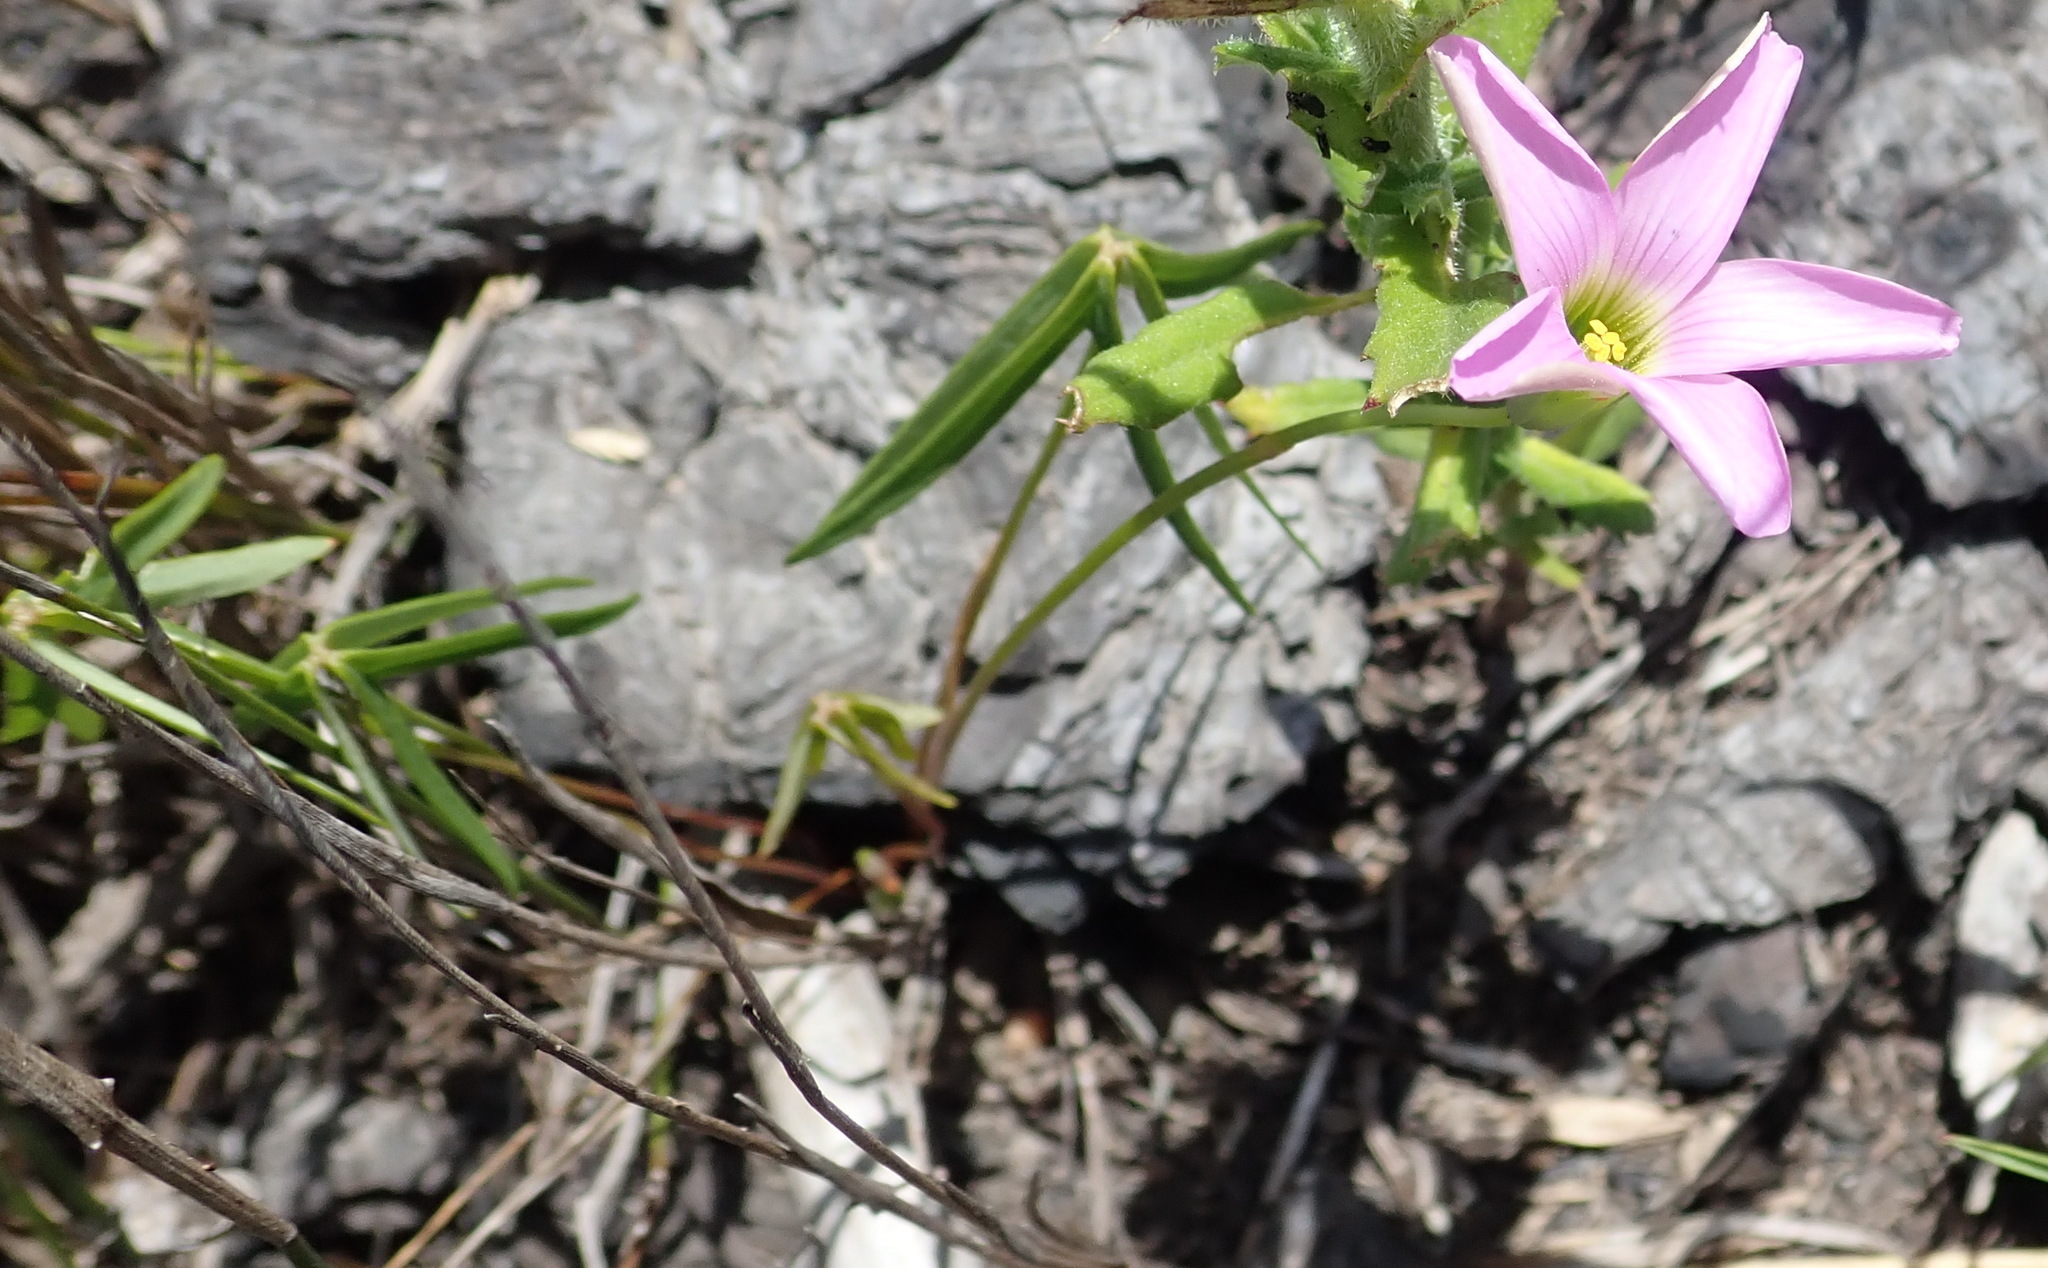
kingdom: Plantae
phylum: Tracheophyta
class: Magnoliopsida
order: Oxalidales
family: Oxalidaceae
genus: Oxalis
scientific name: Oxalis smithiana
